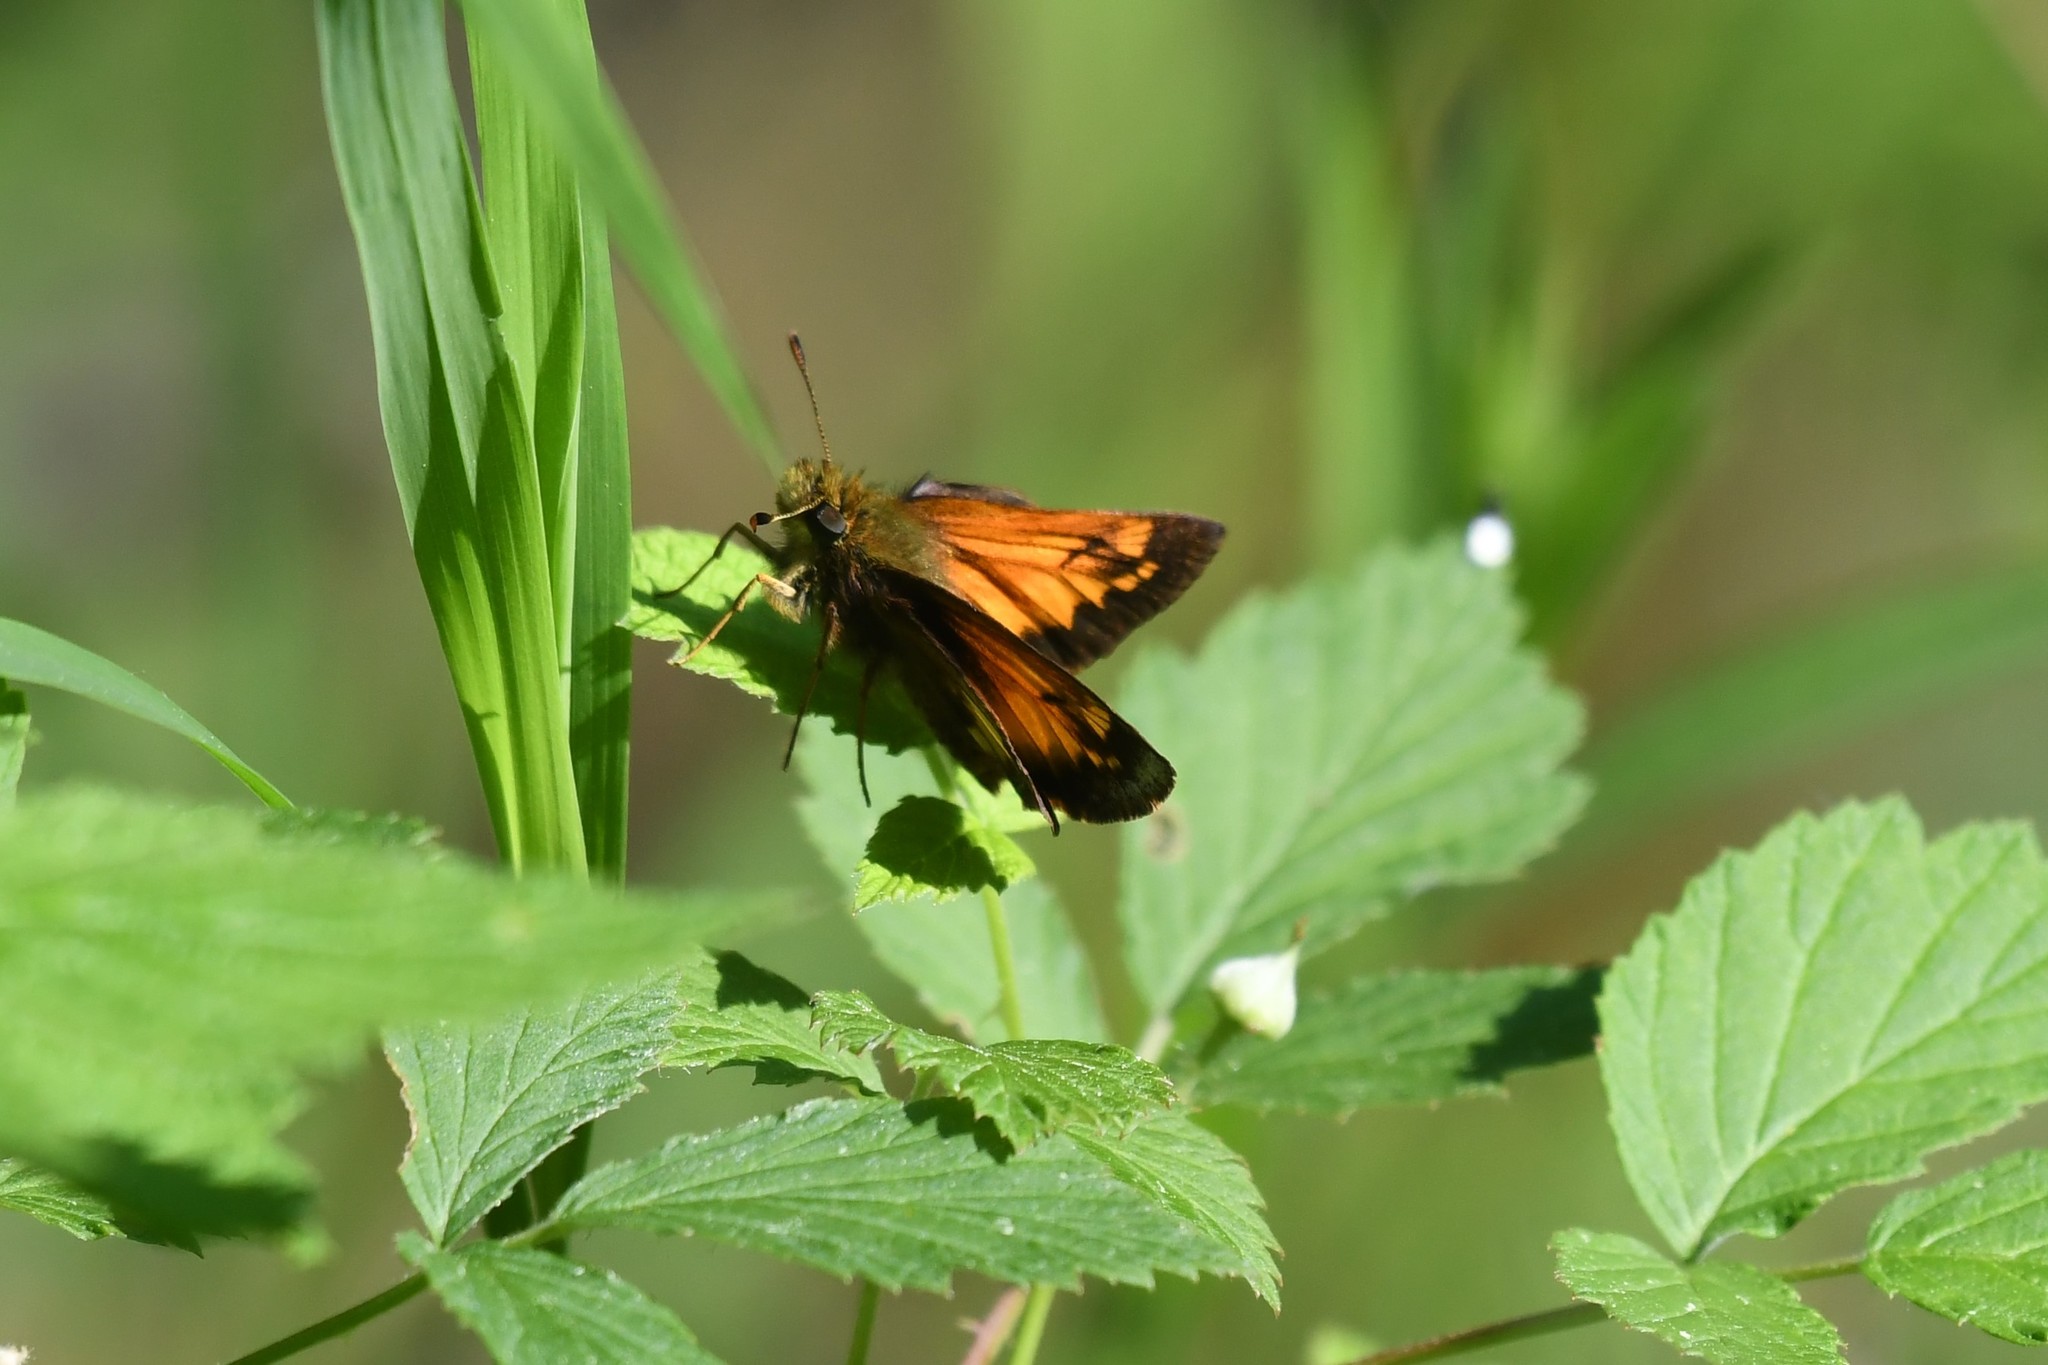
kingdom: Animalia
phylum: Arthropoda
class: Insecta
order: Lepidoptera
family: Hesperiidae
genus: Lon
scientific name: Lon hobomok
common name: Hobomok skipper
